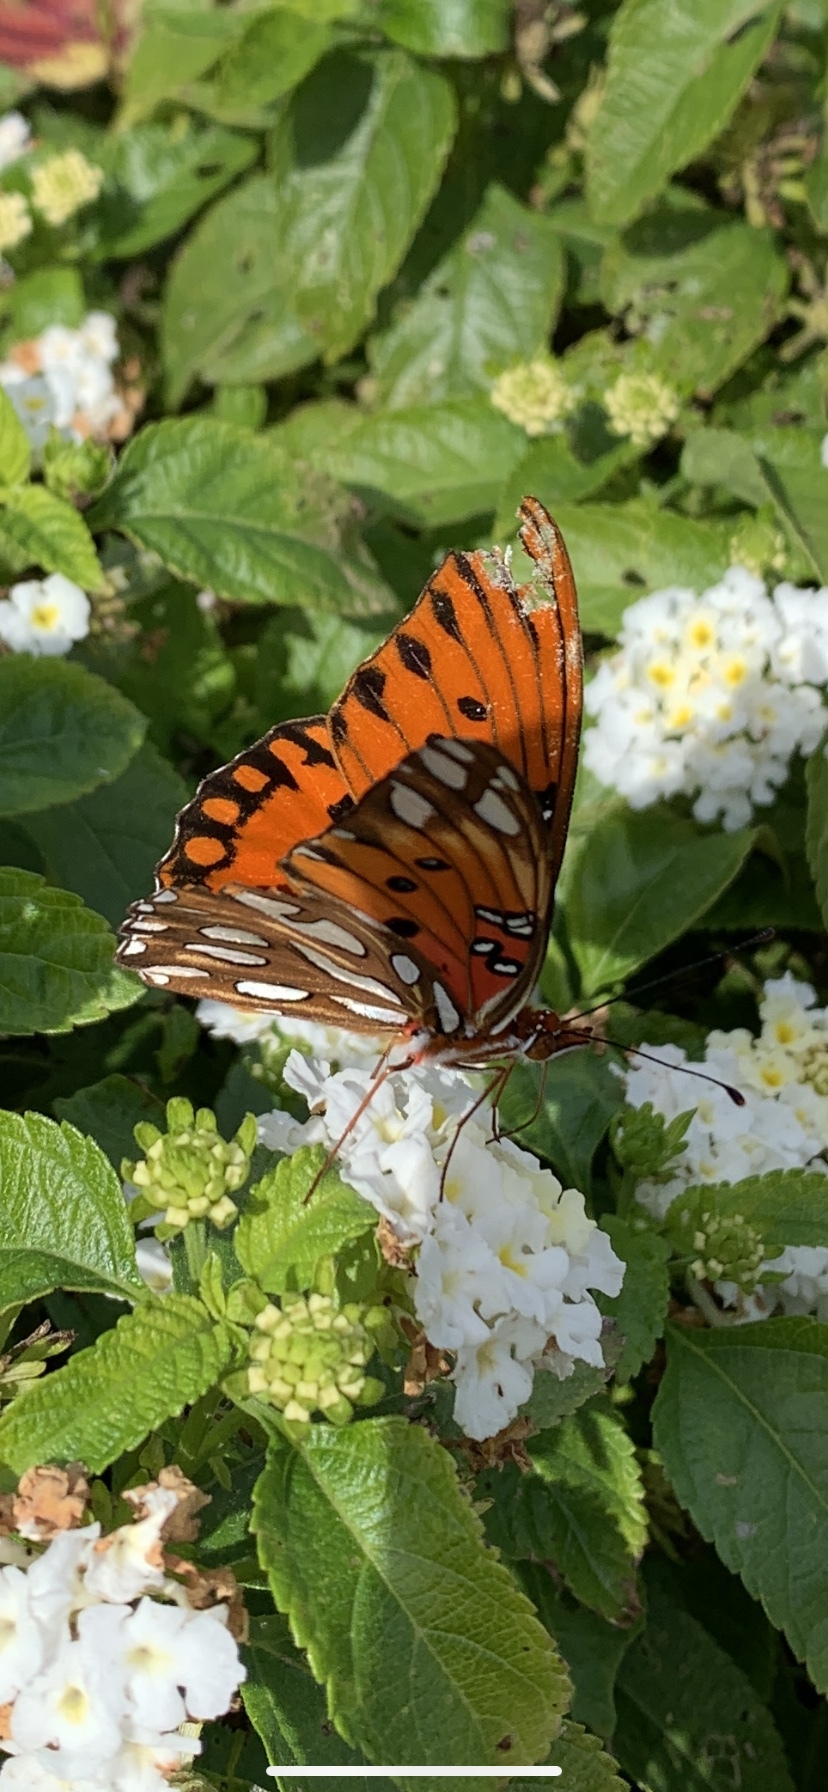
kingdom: Animalia
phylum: Arthropoda
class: Insecta
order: Lepidoptera
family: Nymphalidae
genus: Dione
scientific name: Dione vanillae
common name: Gulf fritillary
